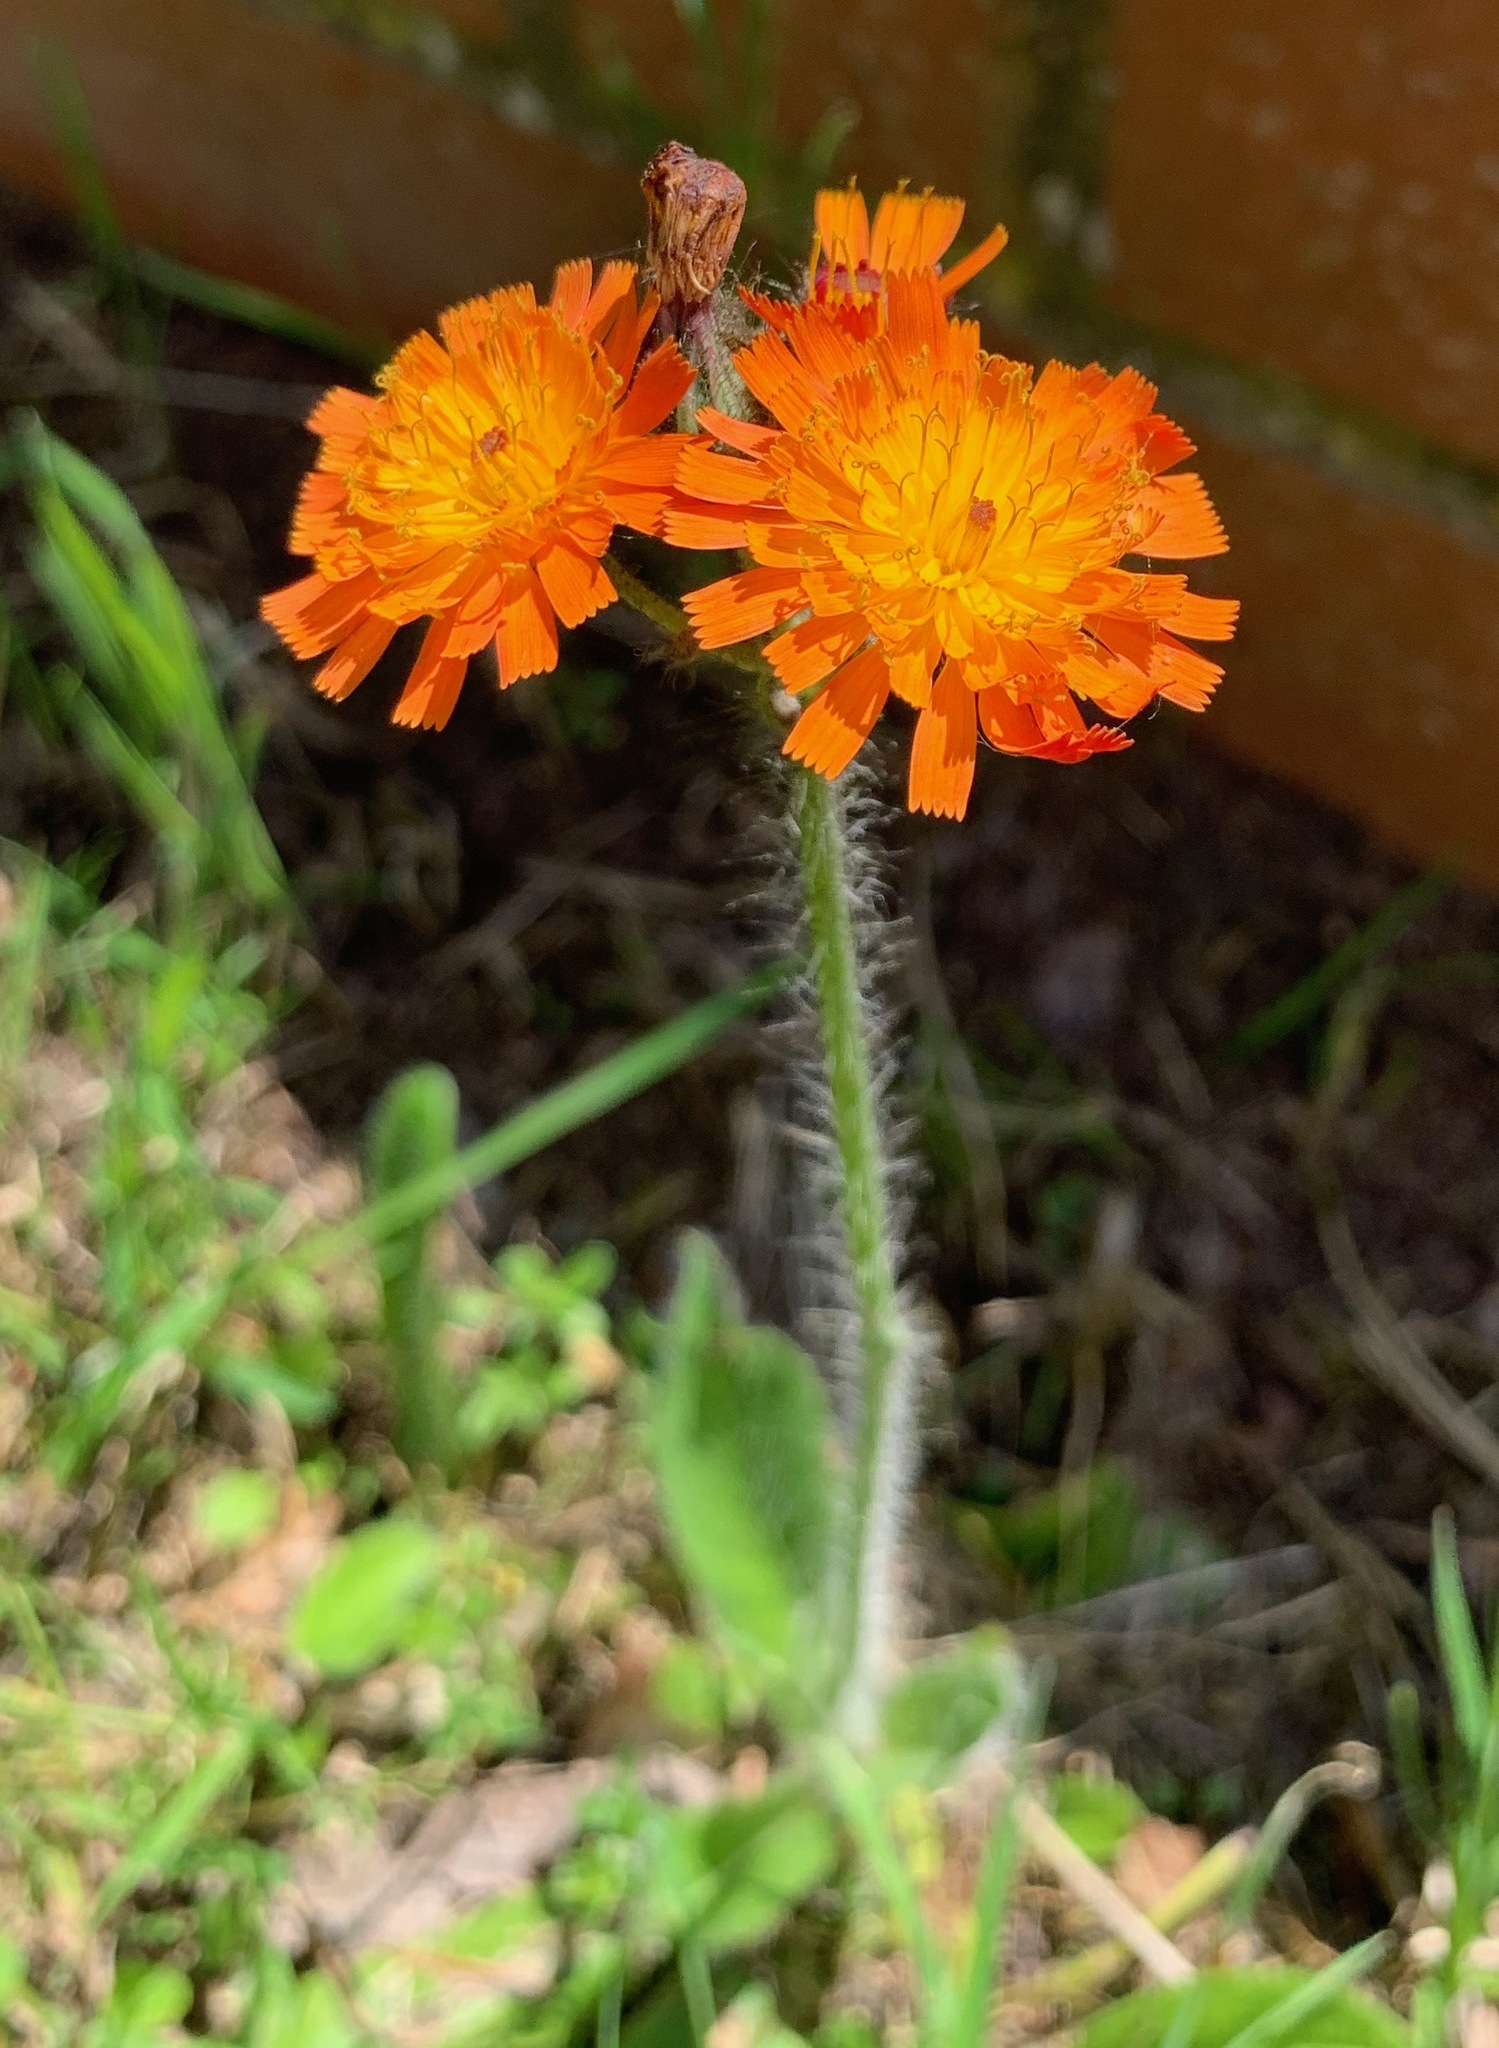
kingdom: Plantae
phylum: Tracheophyta
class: Magnoliopsida
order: Asterales
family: Asteraceae
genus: Pilosella
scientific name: Pilosella aurantiaca
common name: Fox-and-cubs
